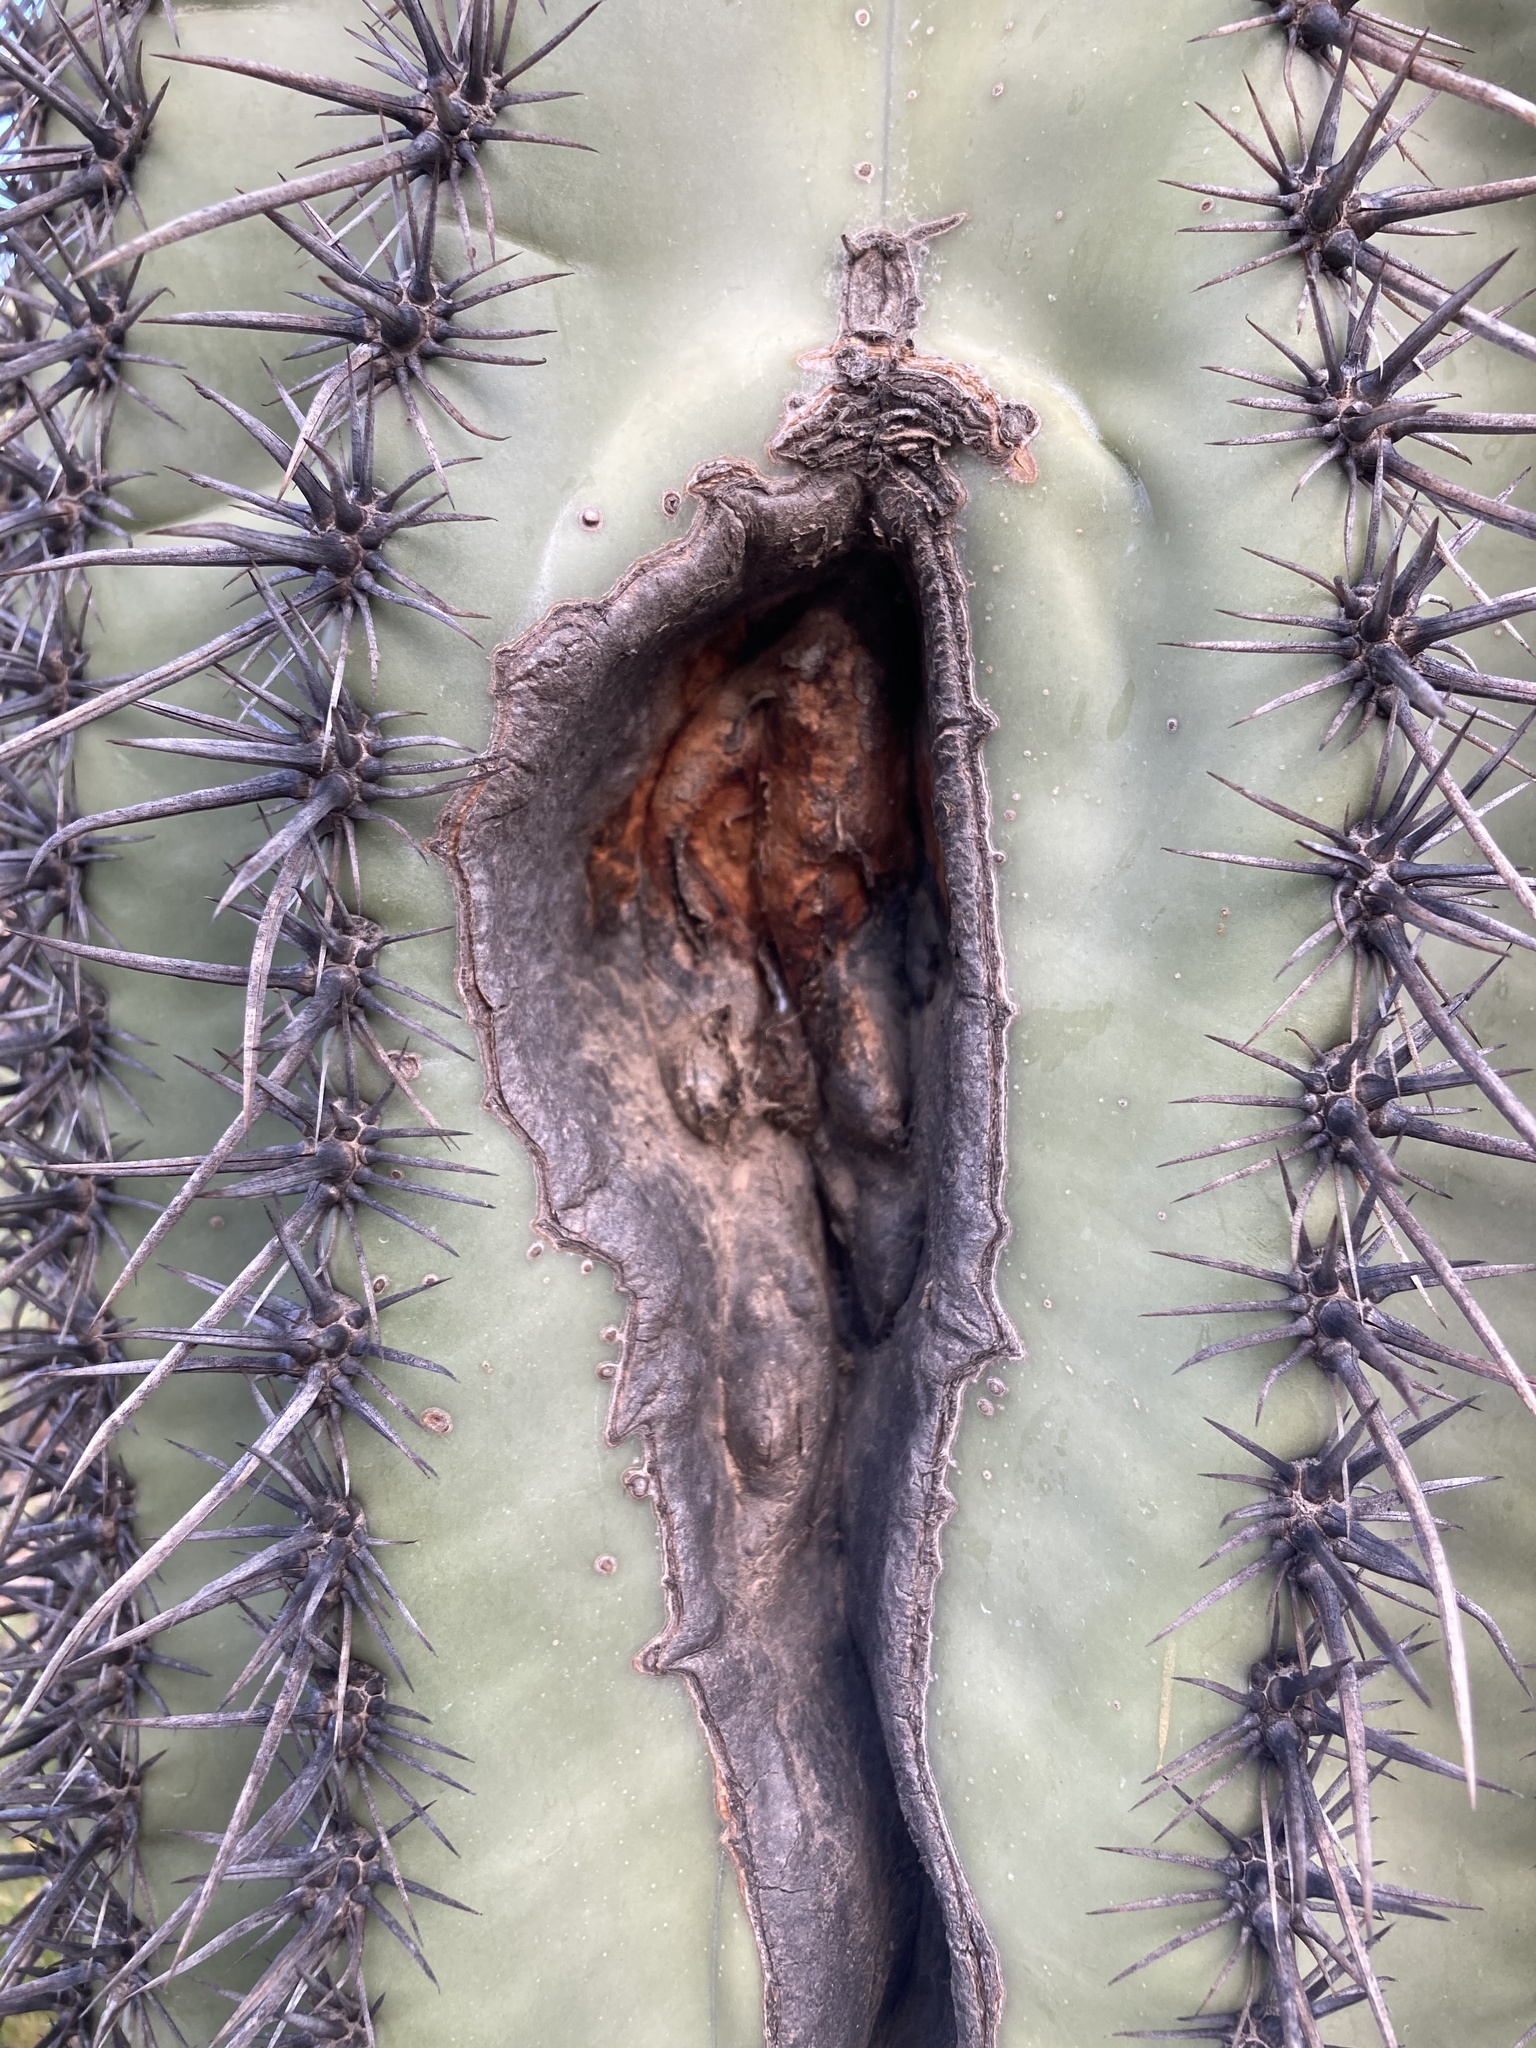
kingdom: Plantae
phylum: Tracheophyta
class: Magnoliopsida
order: Caryophyllales
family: Cactaceae
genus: Carnegiea
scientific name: Carnegiea gigantea
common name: Saguaro
